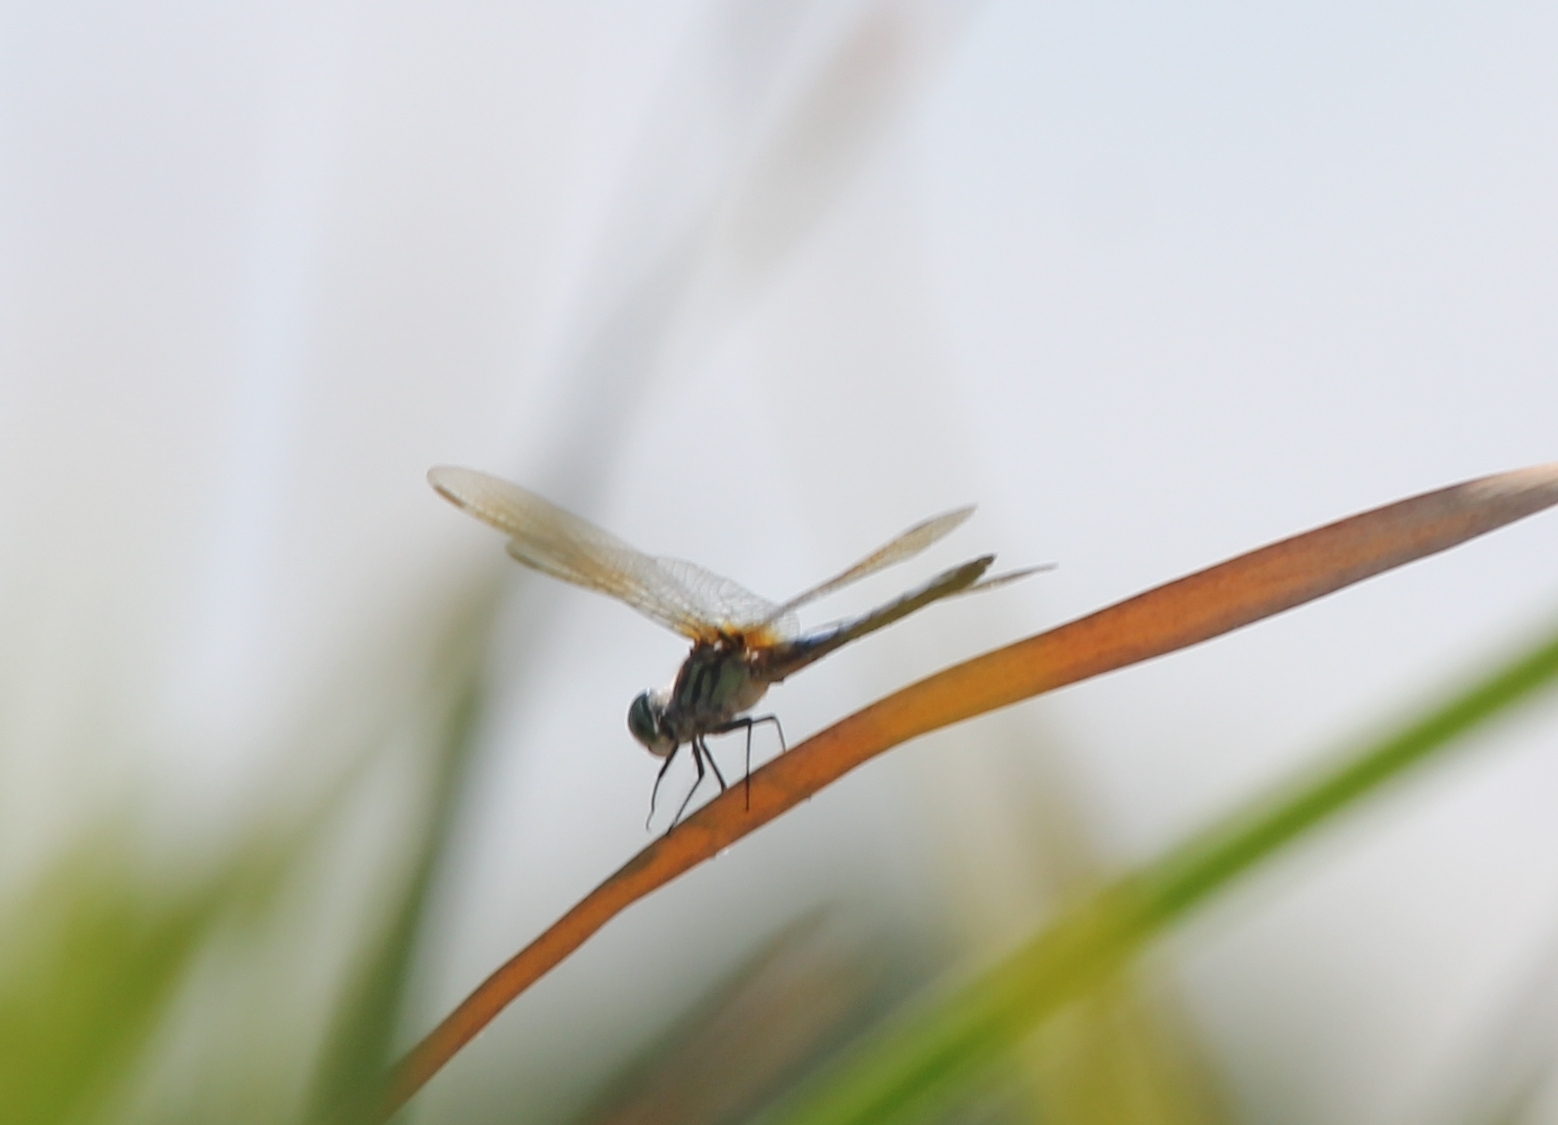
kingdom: Animalia
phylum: Arthropoda
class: Insecta
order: Odonata
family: Libellulidae
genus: Pachydiplax
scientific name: Pachydiplax longipennis
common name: Blue dasher
